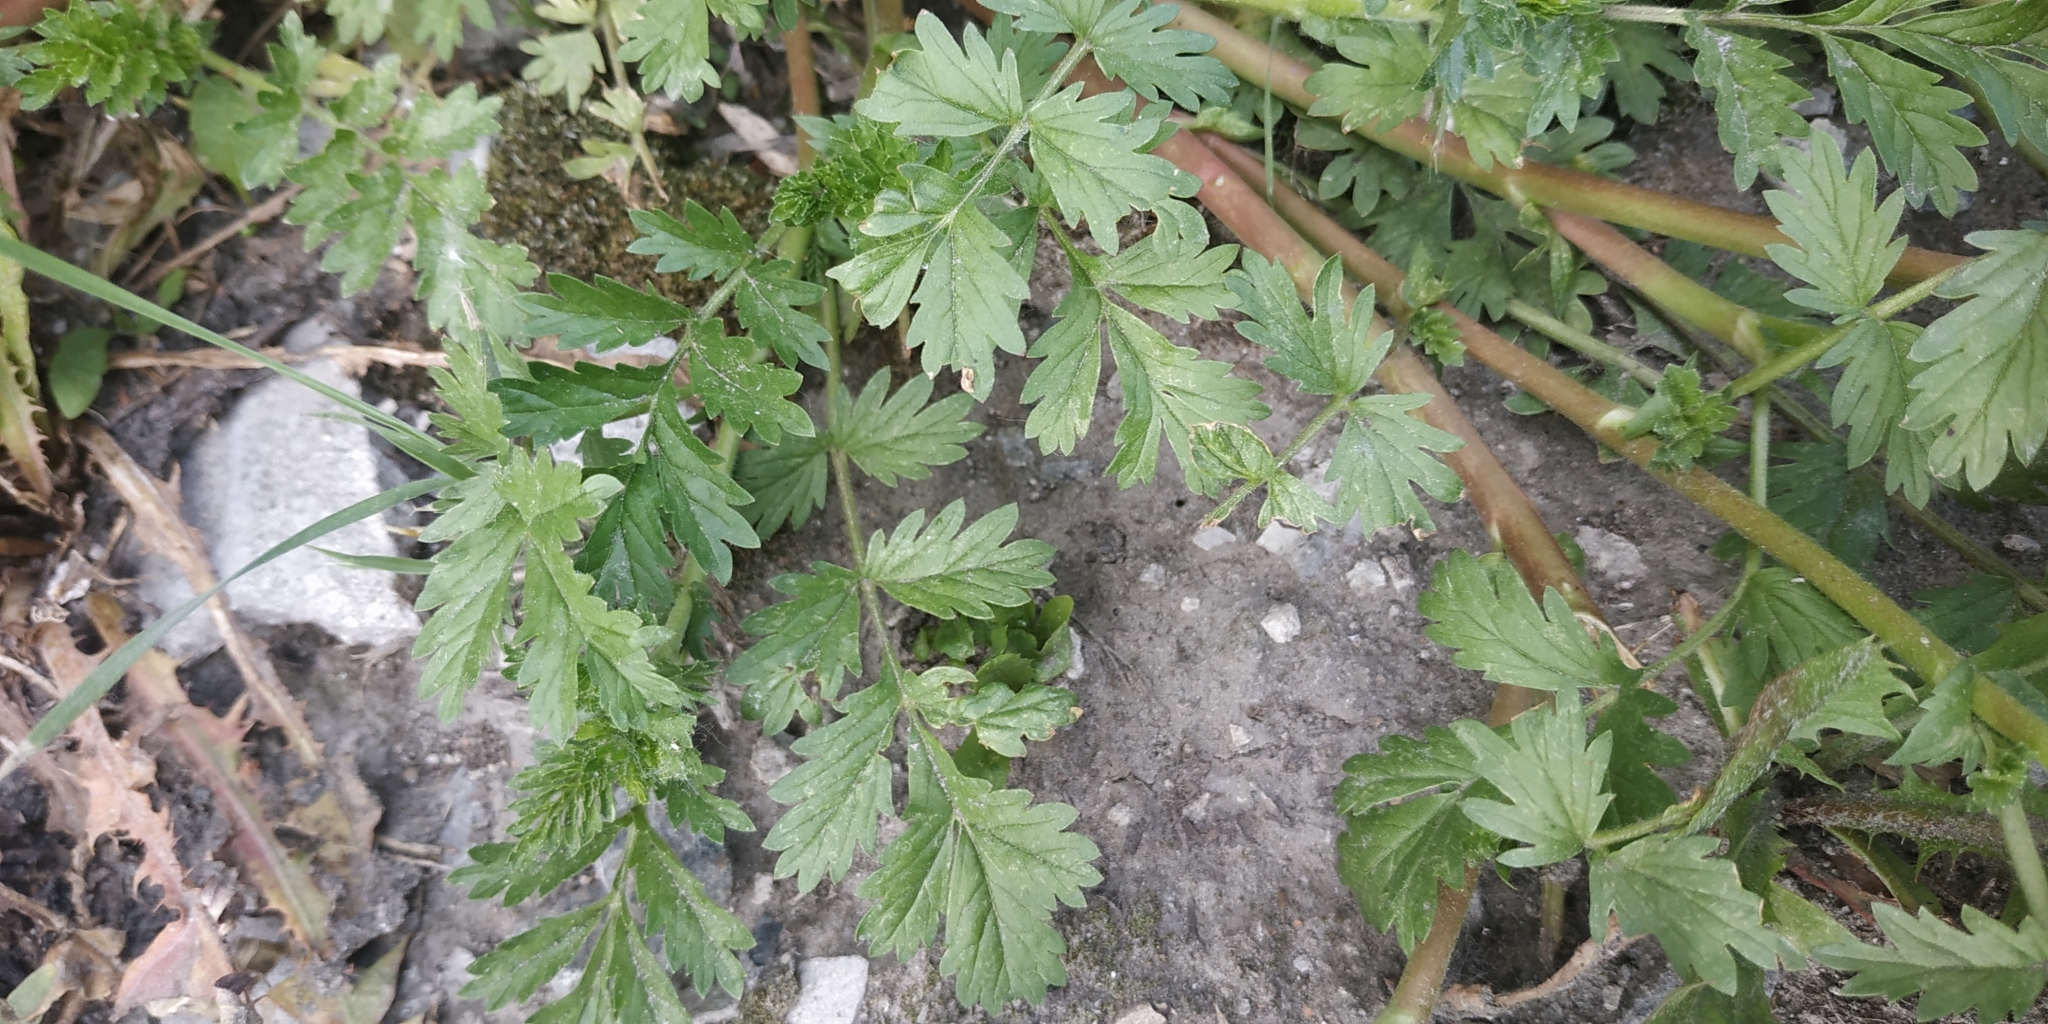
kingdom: Plantae
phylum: Tracheophyta
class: Magnoliopsida
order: Rosales
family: Rosaceae
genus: Potentilla
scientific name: Potentilla supina
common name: Prostrate cinquefoil
